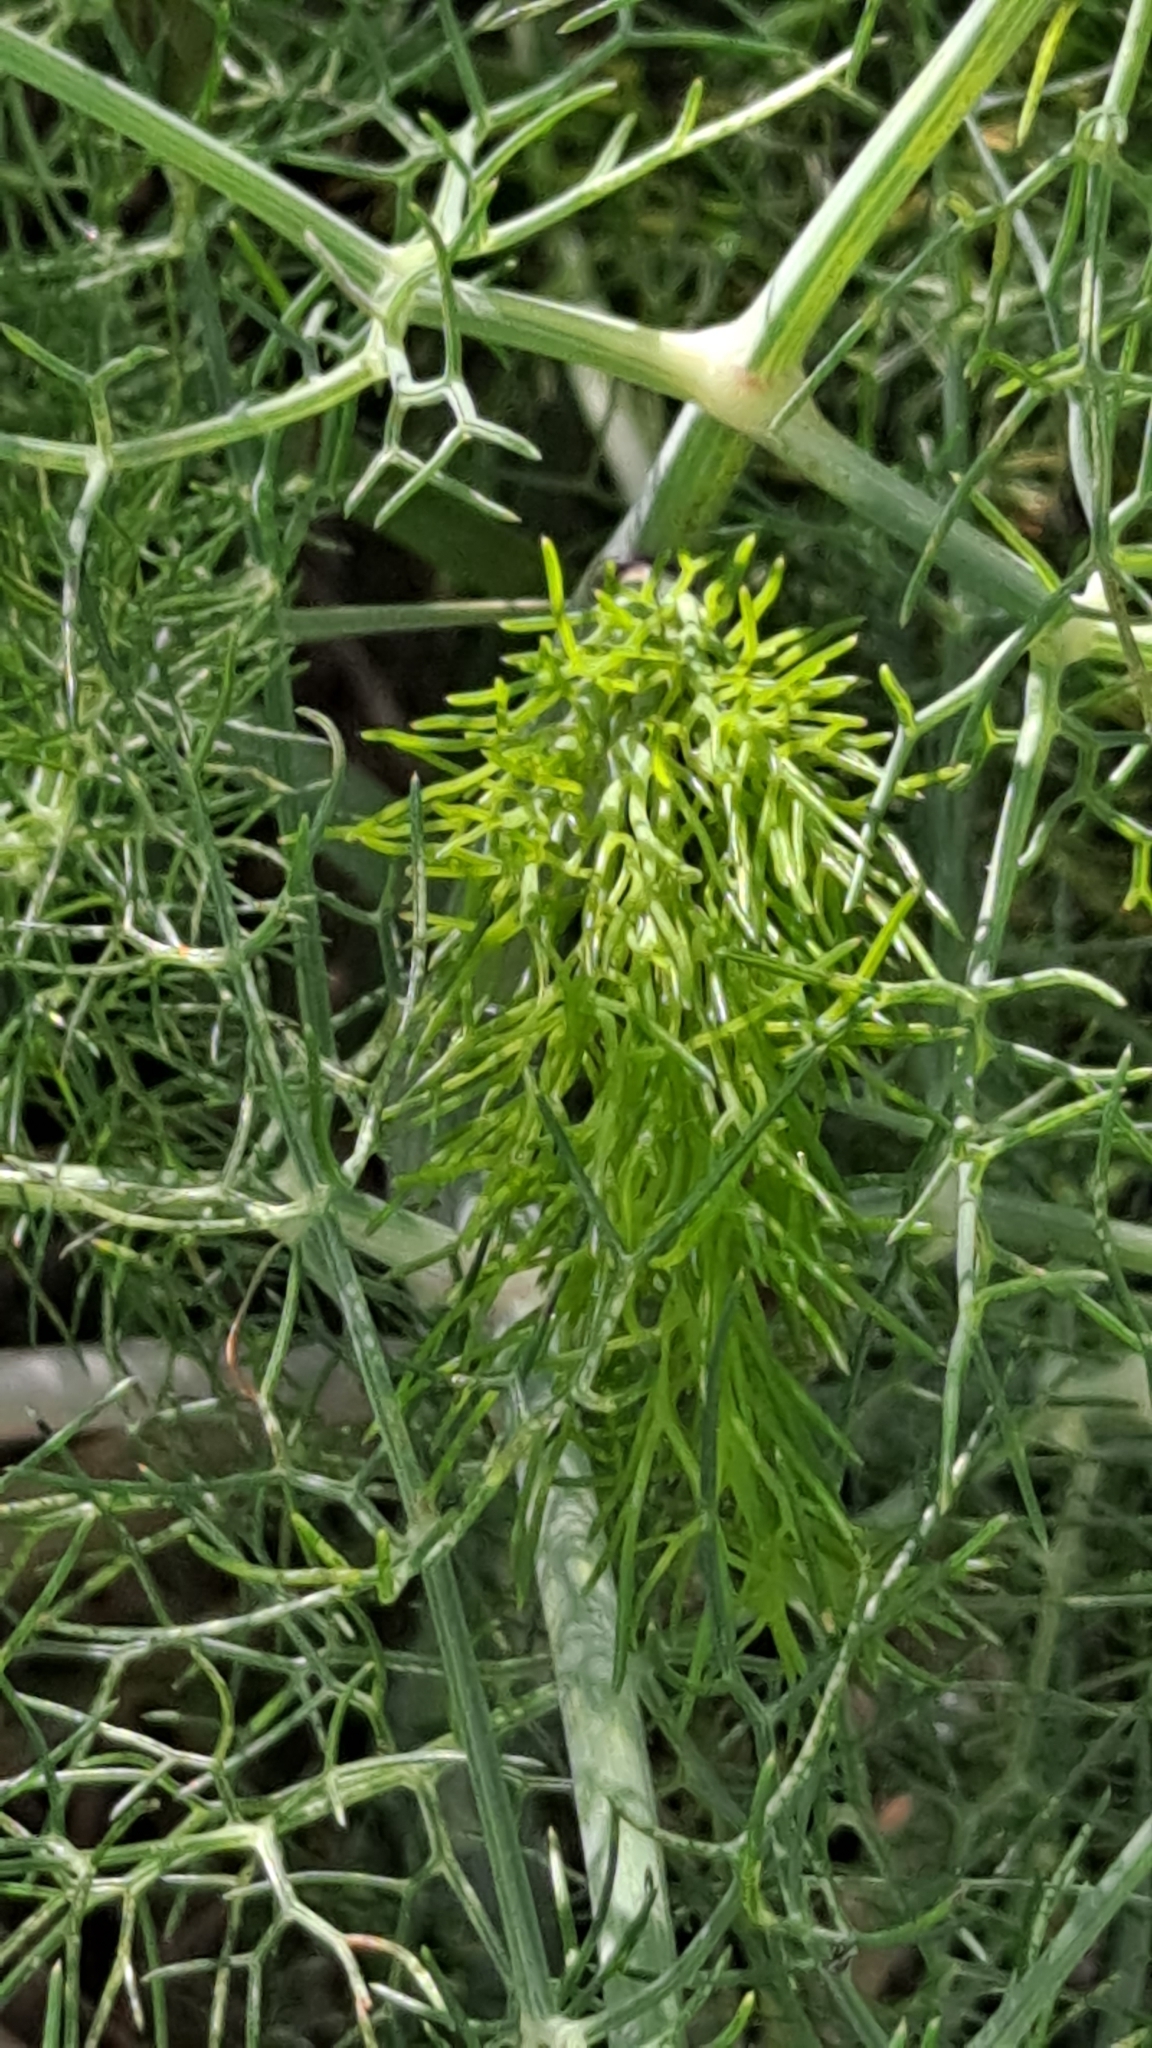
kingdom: Plantae
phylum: Tracheophyta
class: Magnoliopsida
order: Apiales
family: Apiaceae
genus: Foeniculum
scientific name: Foeniculum vulgare
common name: Fennel
